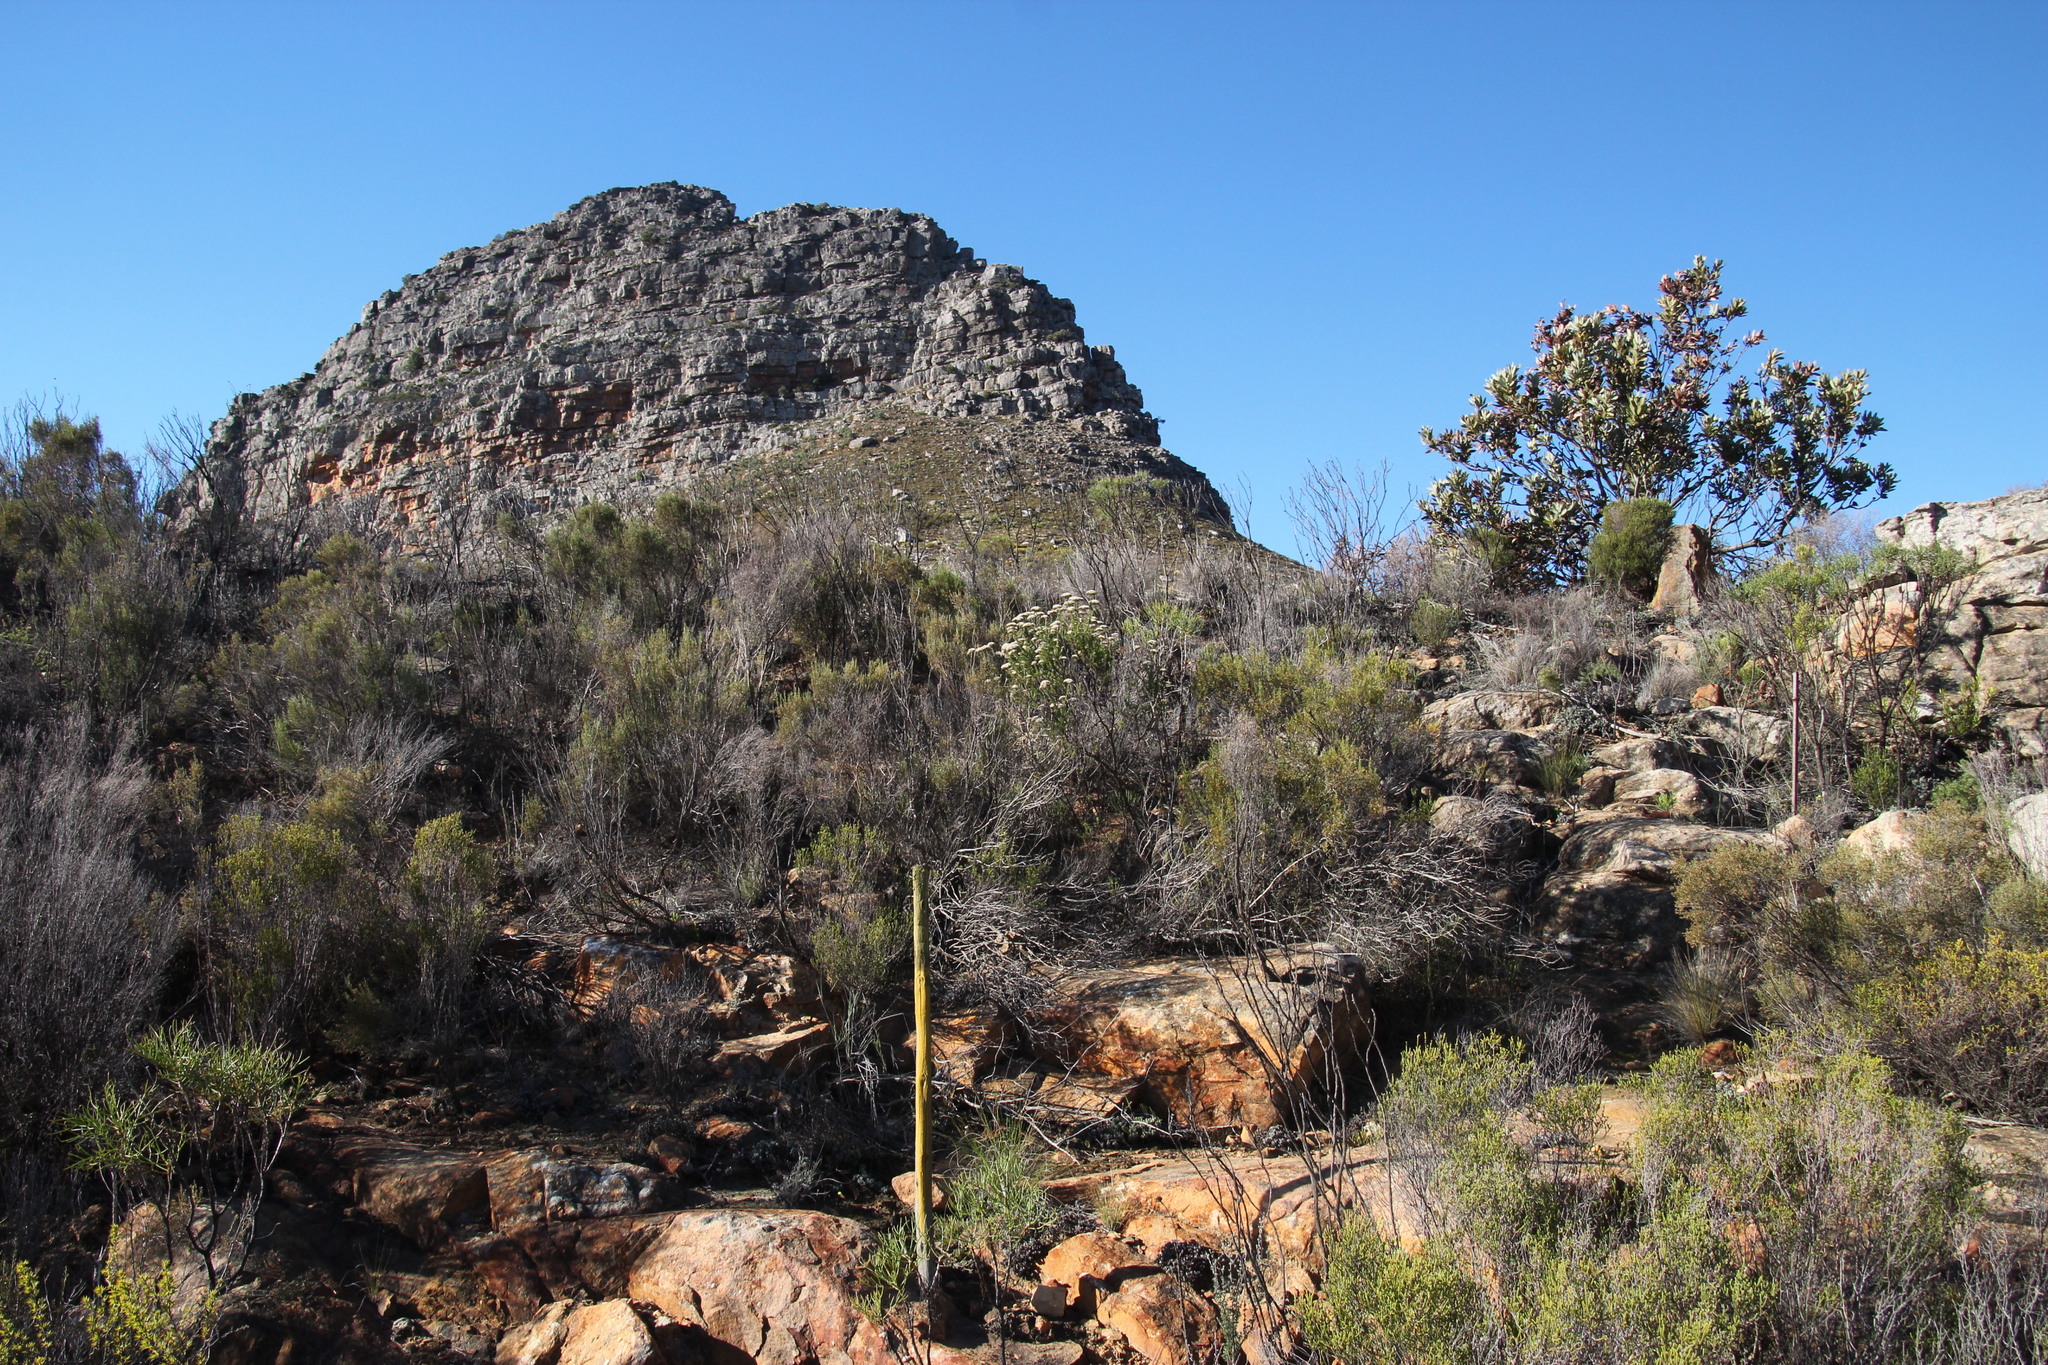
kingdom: Plantae
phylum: Tracheophyta
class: Magnoliopsida
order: Asterales
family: Asteraceae
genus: Metalasia
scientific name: Metalasia densa
